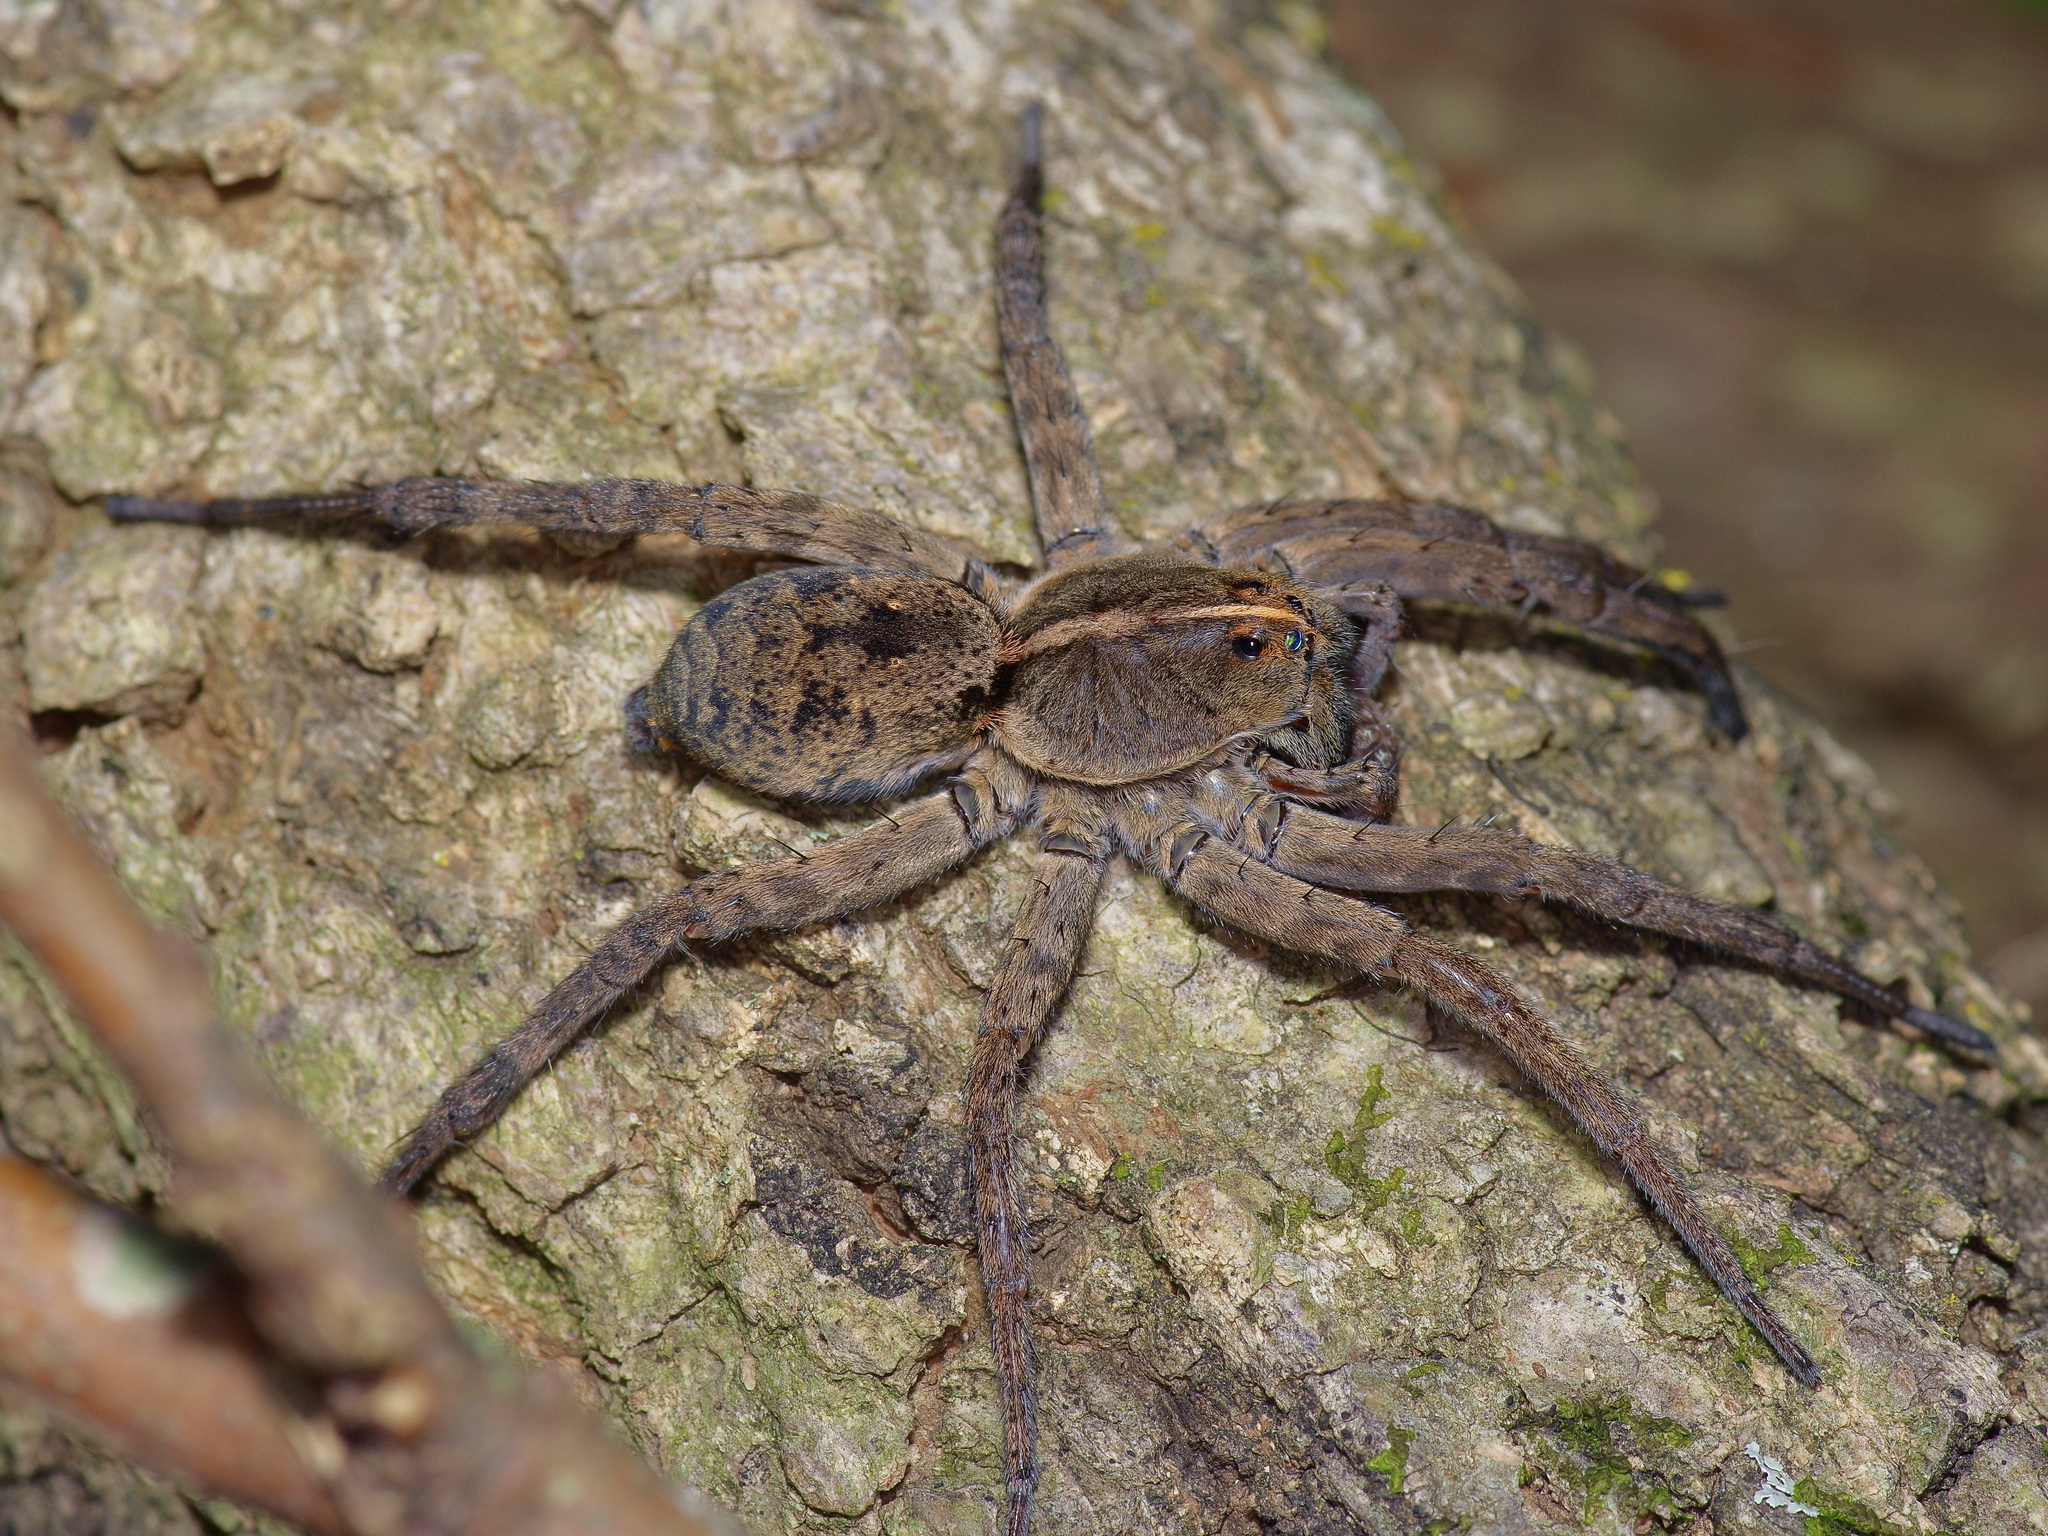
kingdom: Animalia
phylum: Arthropoda
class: Arachnida
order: Araneae
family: Lycosidae
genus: Tigrosa
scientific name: Tigrosa georgicola
